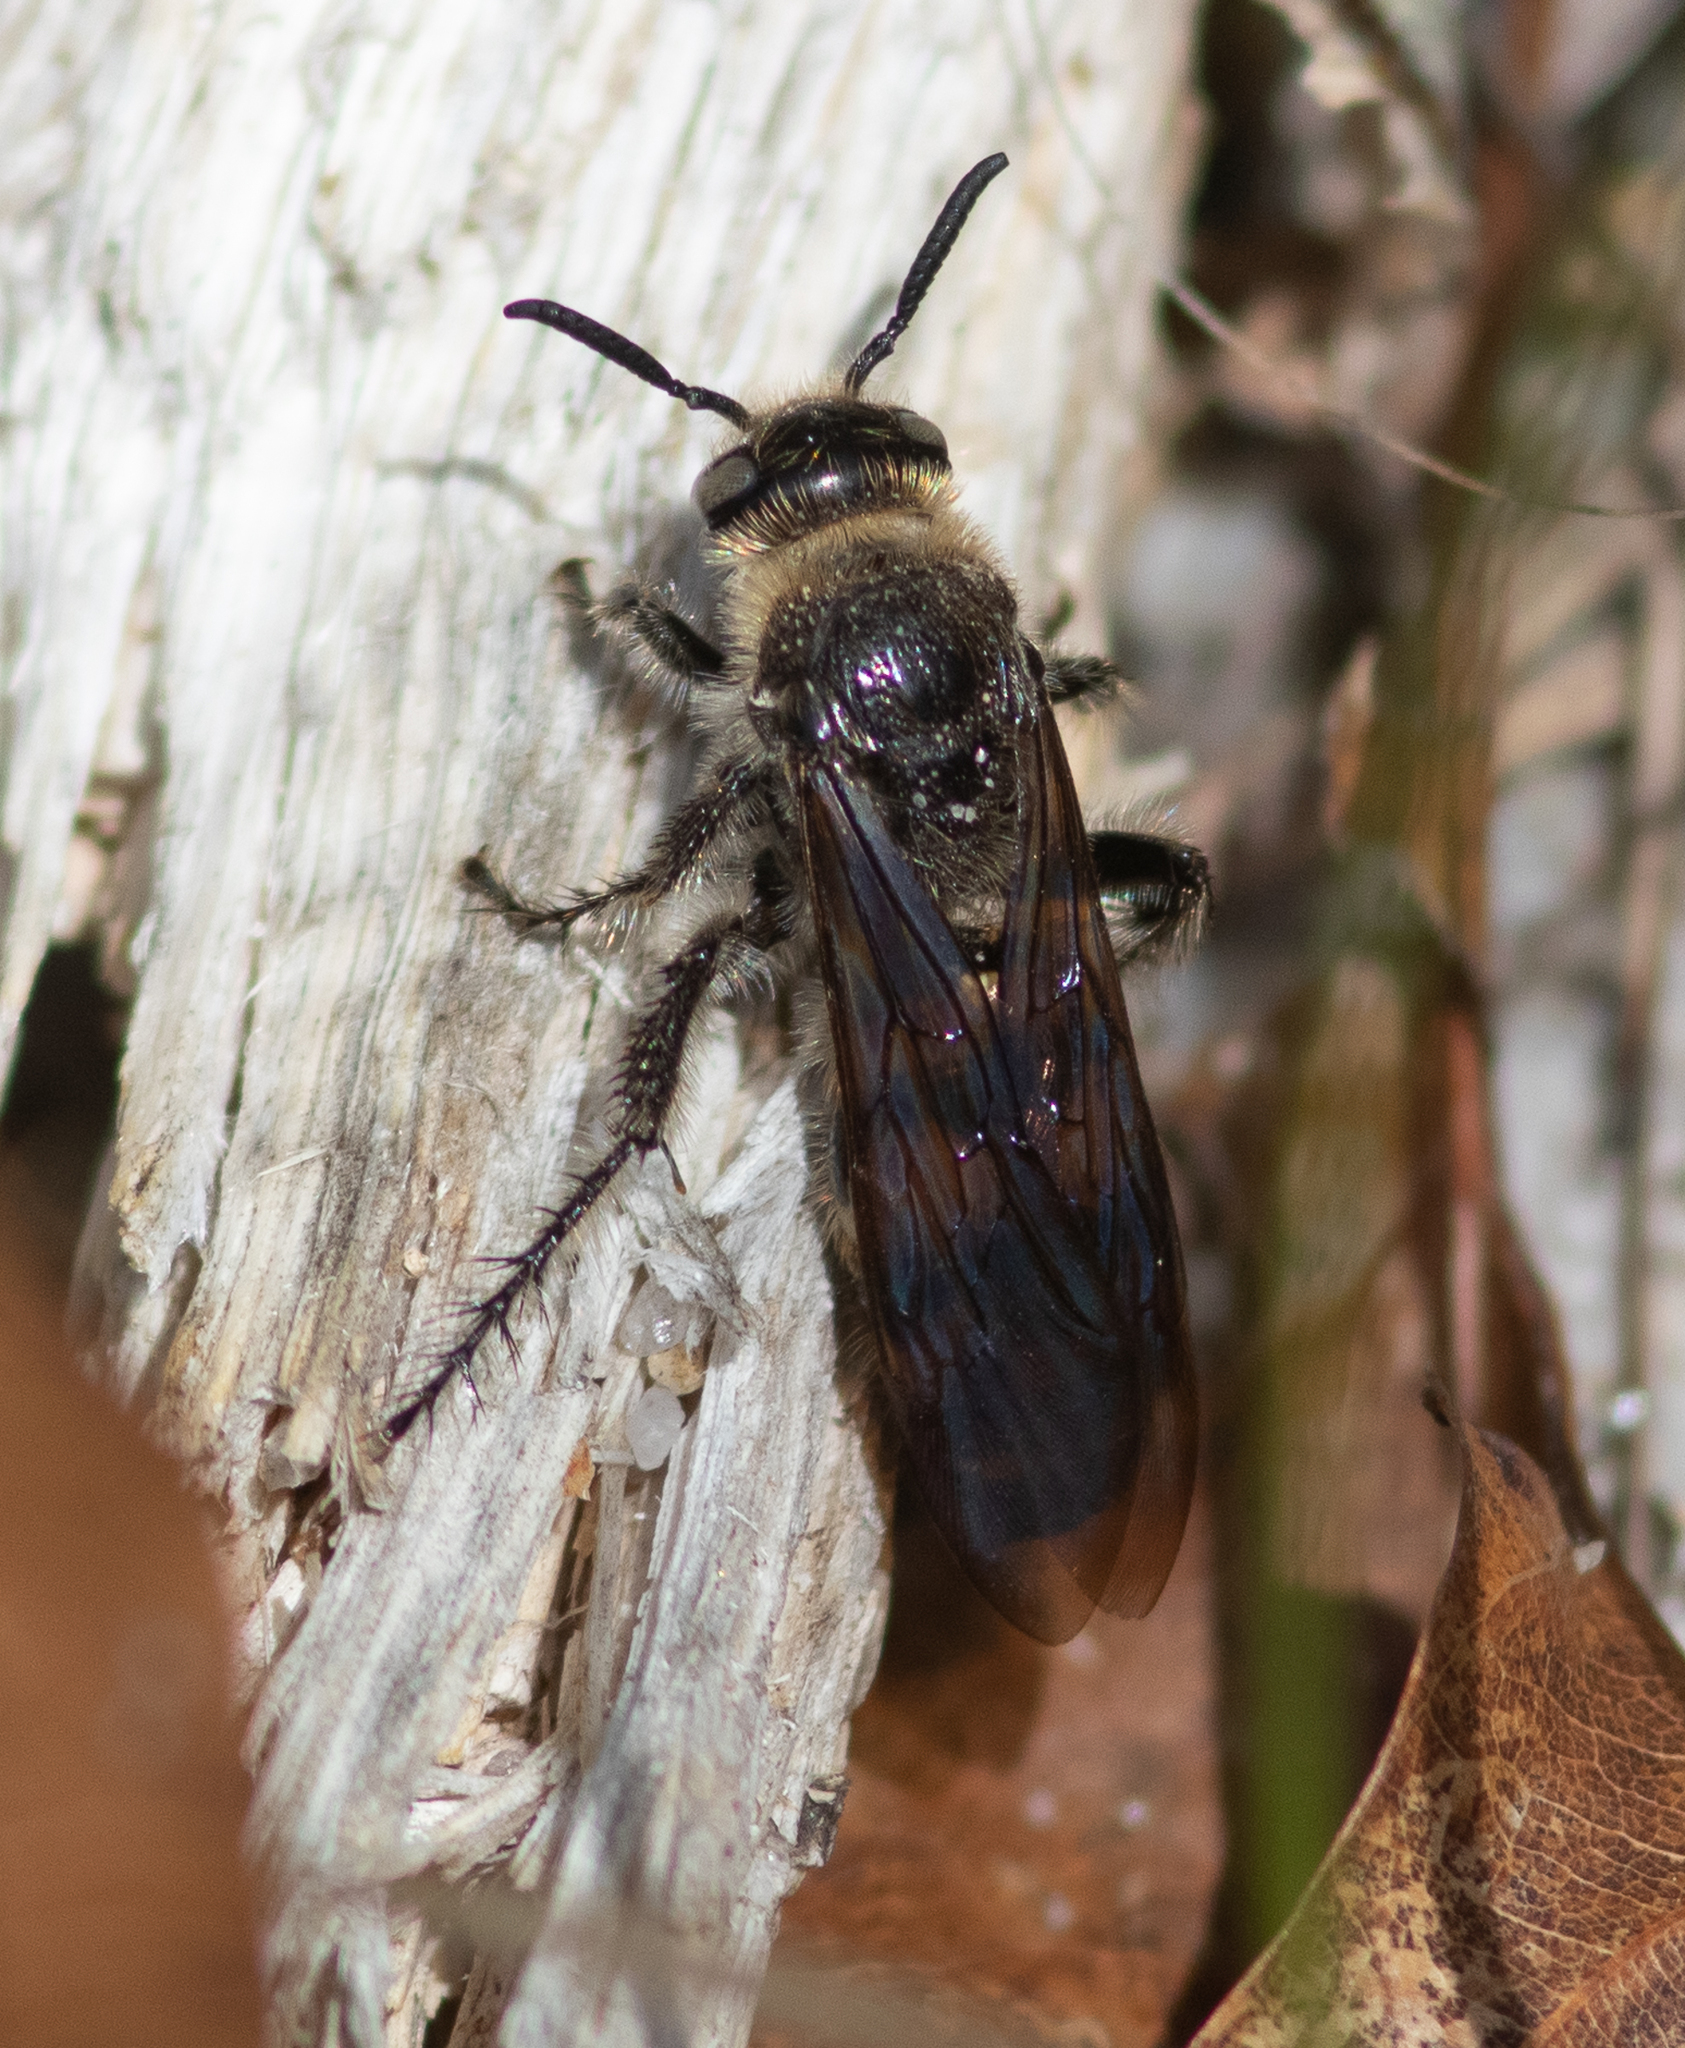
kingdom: Animalia
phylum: Arthropoda
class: Insecta
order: Hymenoptera
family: Scoliidae
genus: Dielis
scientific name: Dielis
